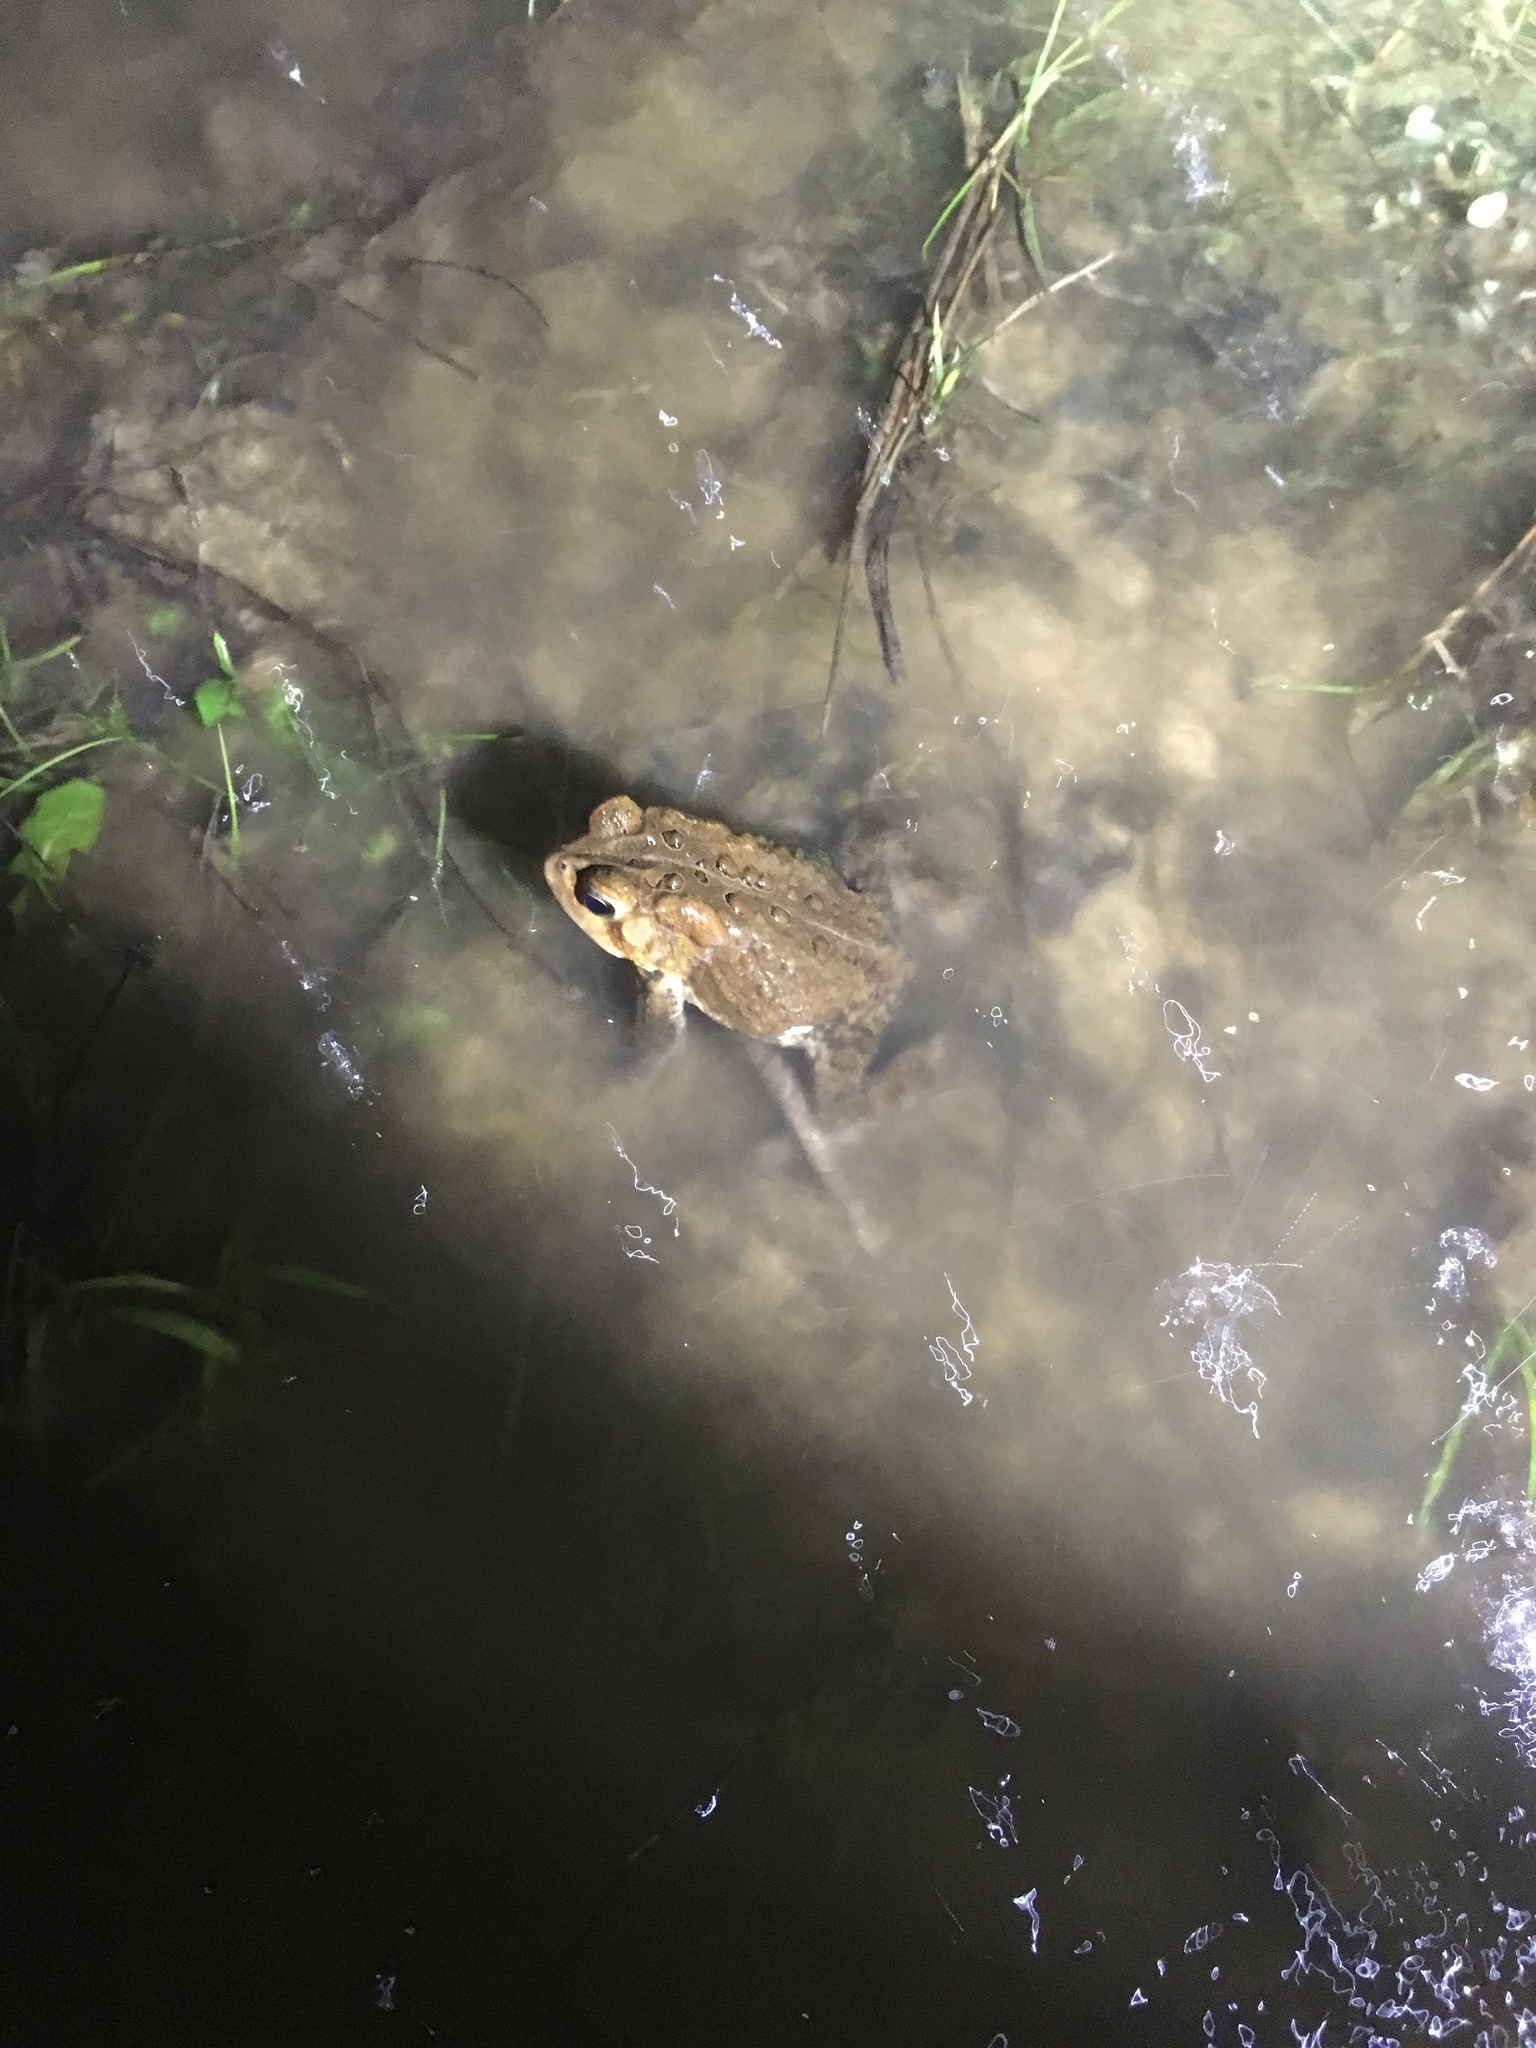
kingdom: Animalia
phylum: Chordata
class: Amphibia
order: Anura
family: Bufonidae
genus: Anaxyrus
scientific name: Anaxyrus americanus
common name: American toad
